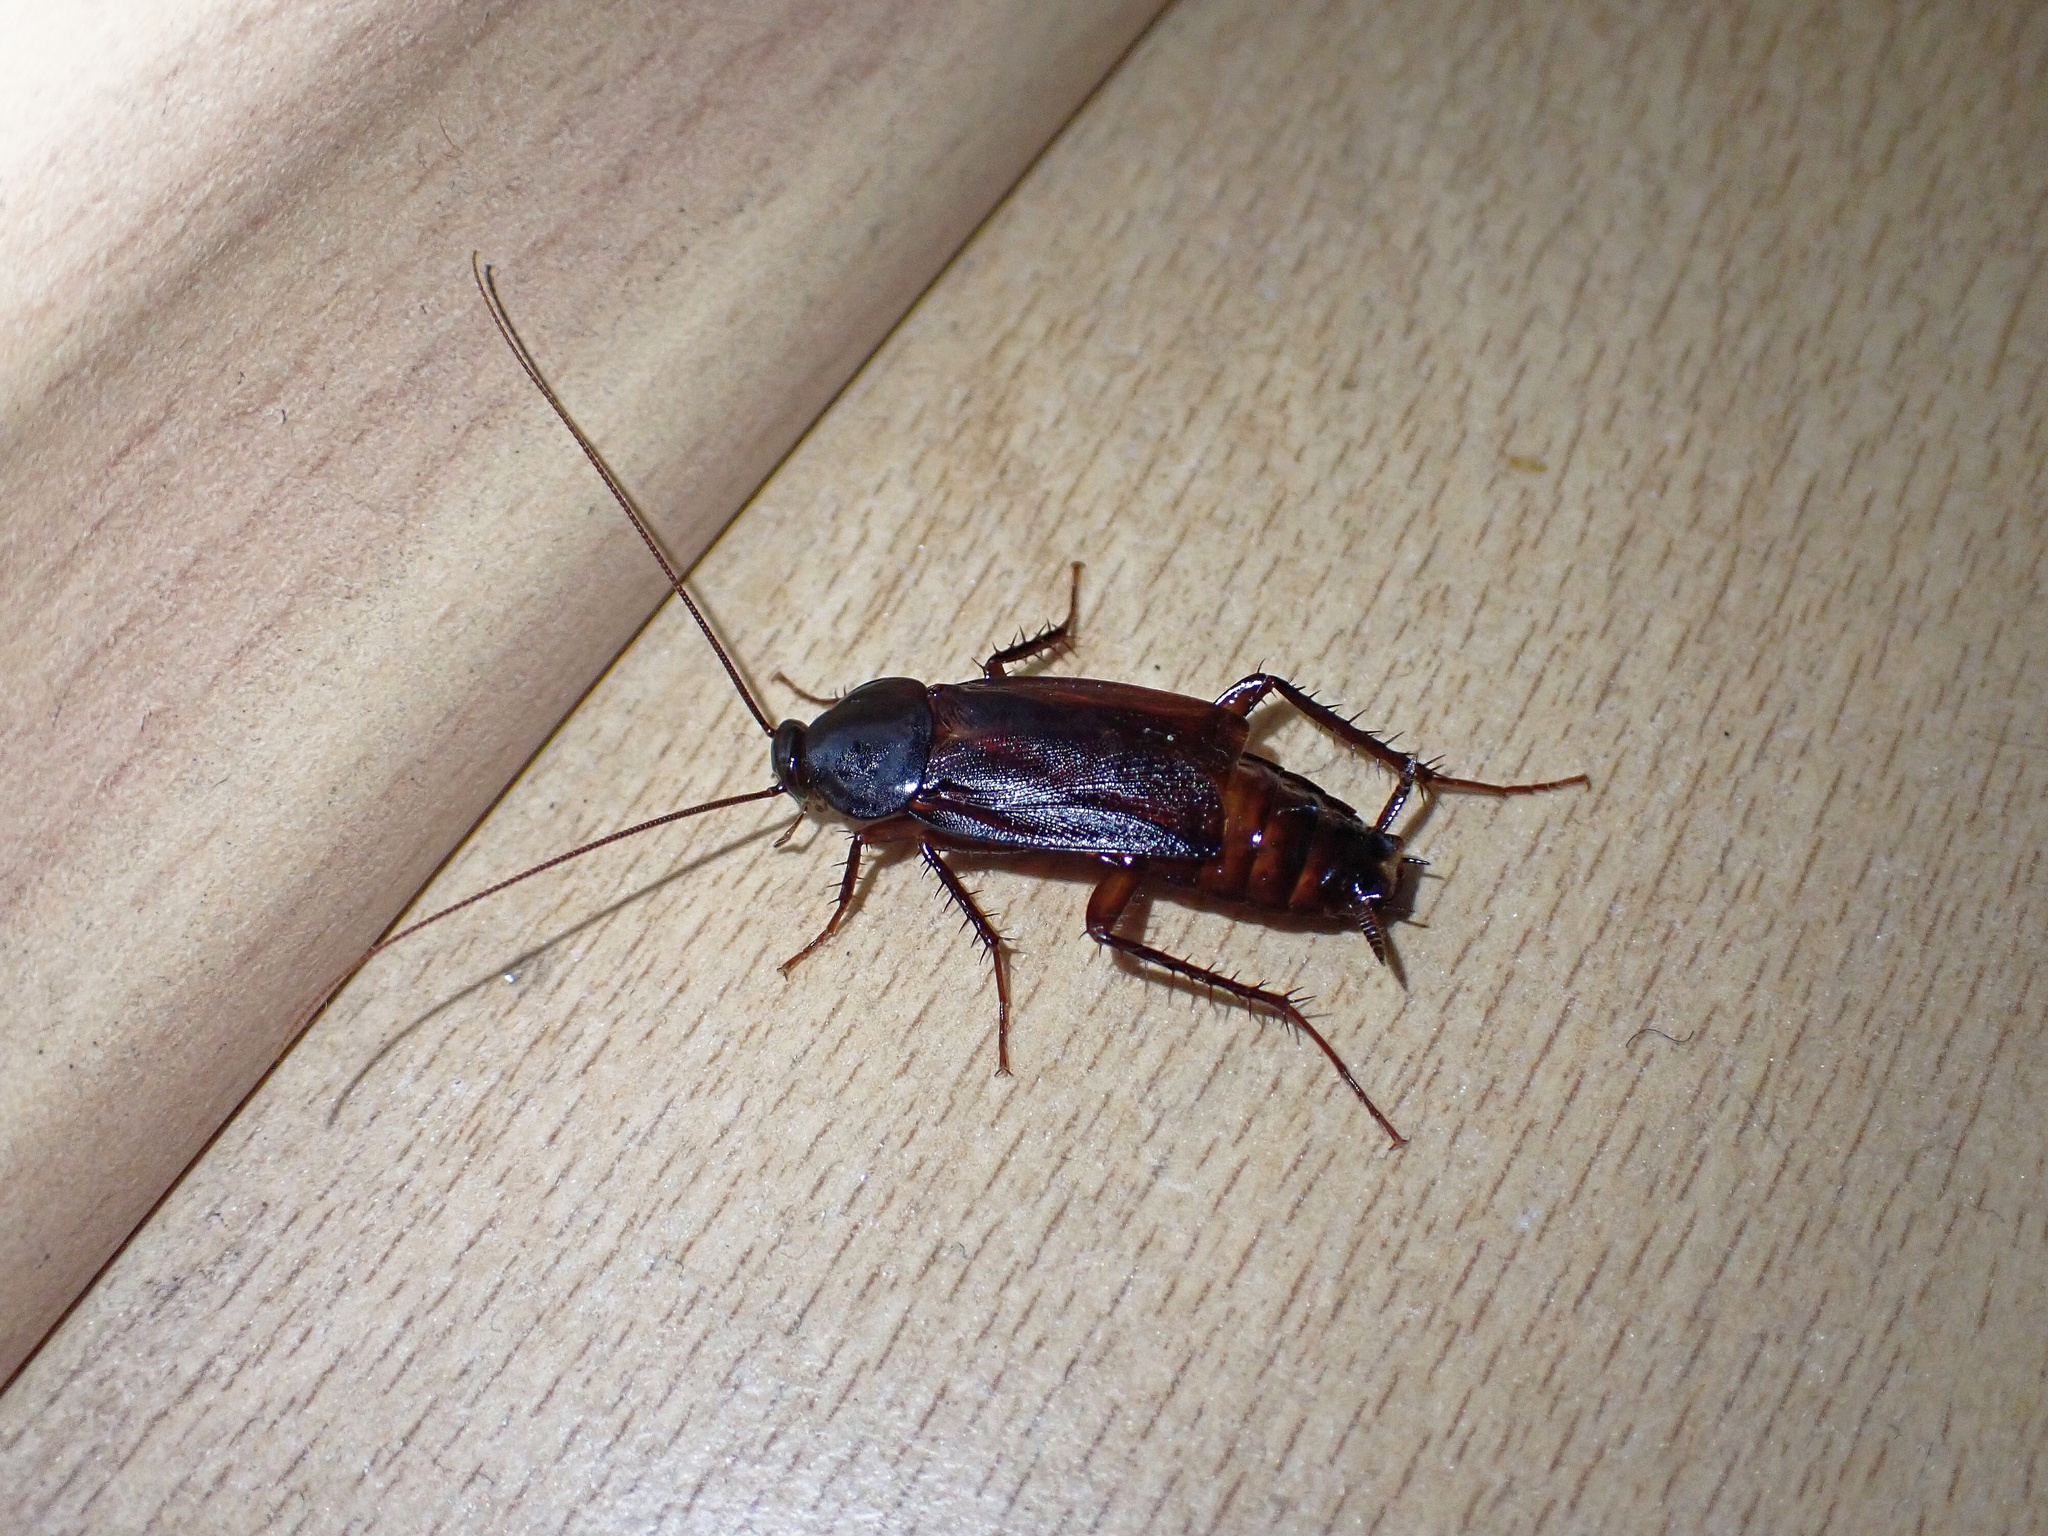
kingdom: Animalia
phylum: Arthropoda
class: Insecta
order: Blattodea
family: Blattidae
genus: Blatta
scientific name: Blatta orientalis
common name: Oriental cockroach
